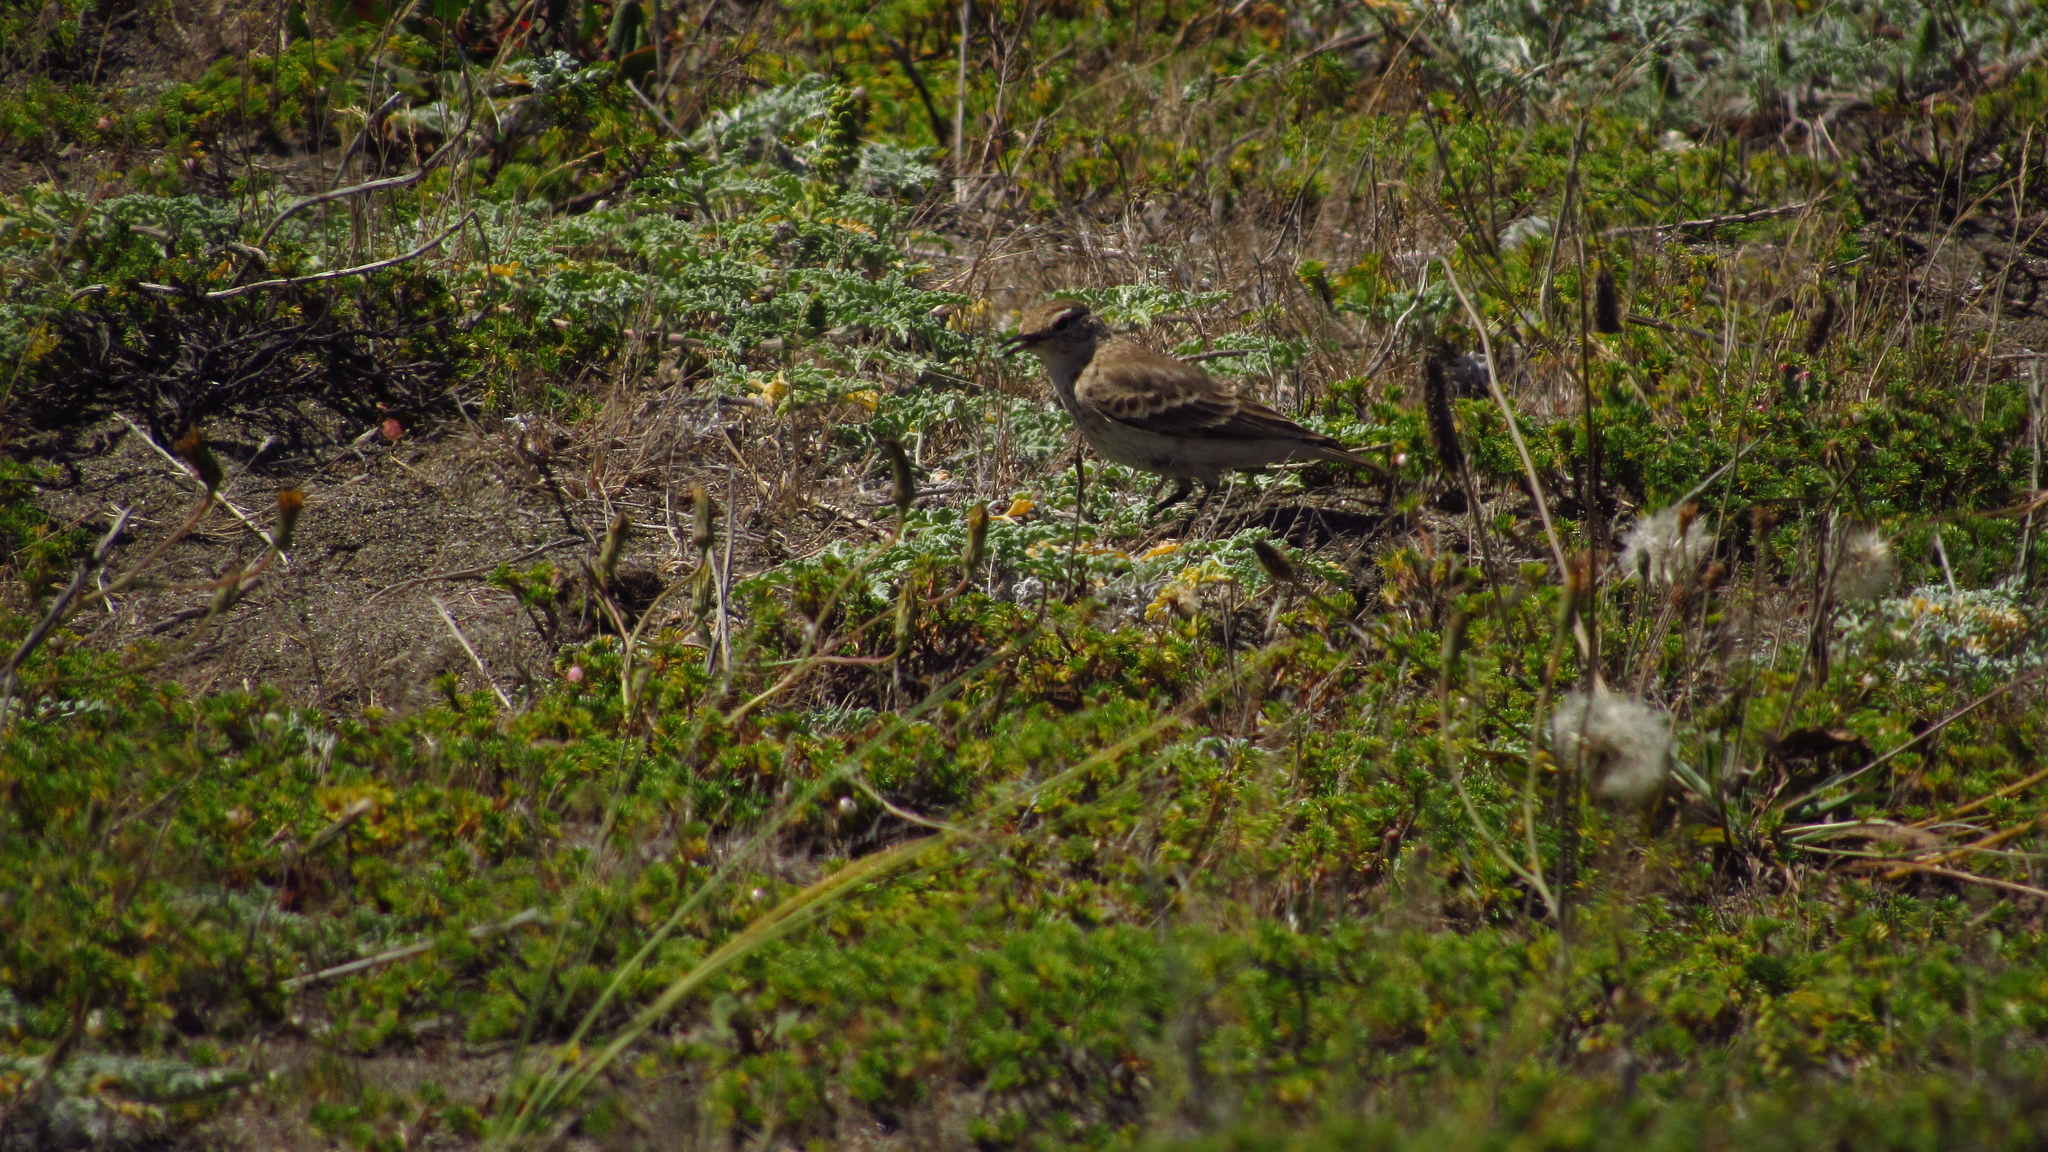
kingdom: Animalia
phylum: Chordata
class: Aves
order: Passeriformes
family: Furnariidae
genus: Geositta
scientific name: Geositta cunicularia
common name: Common miner
